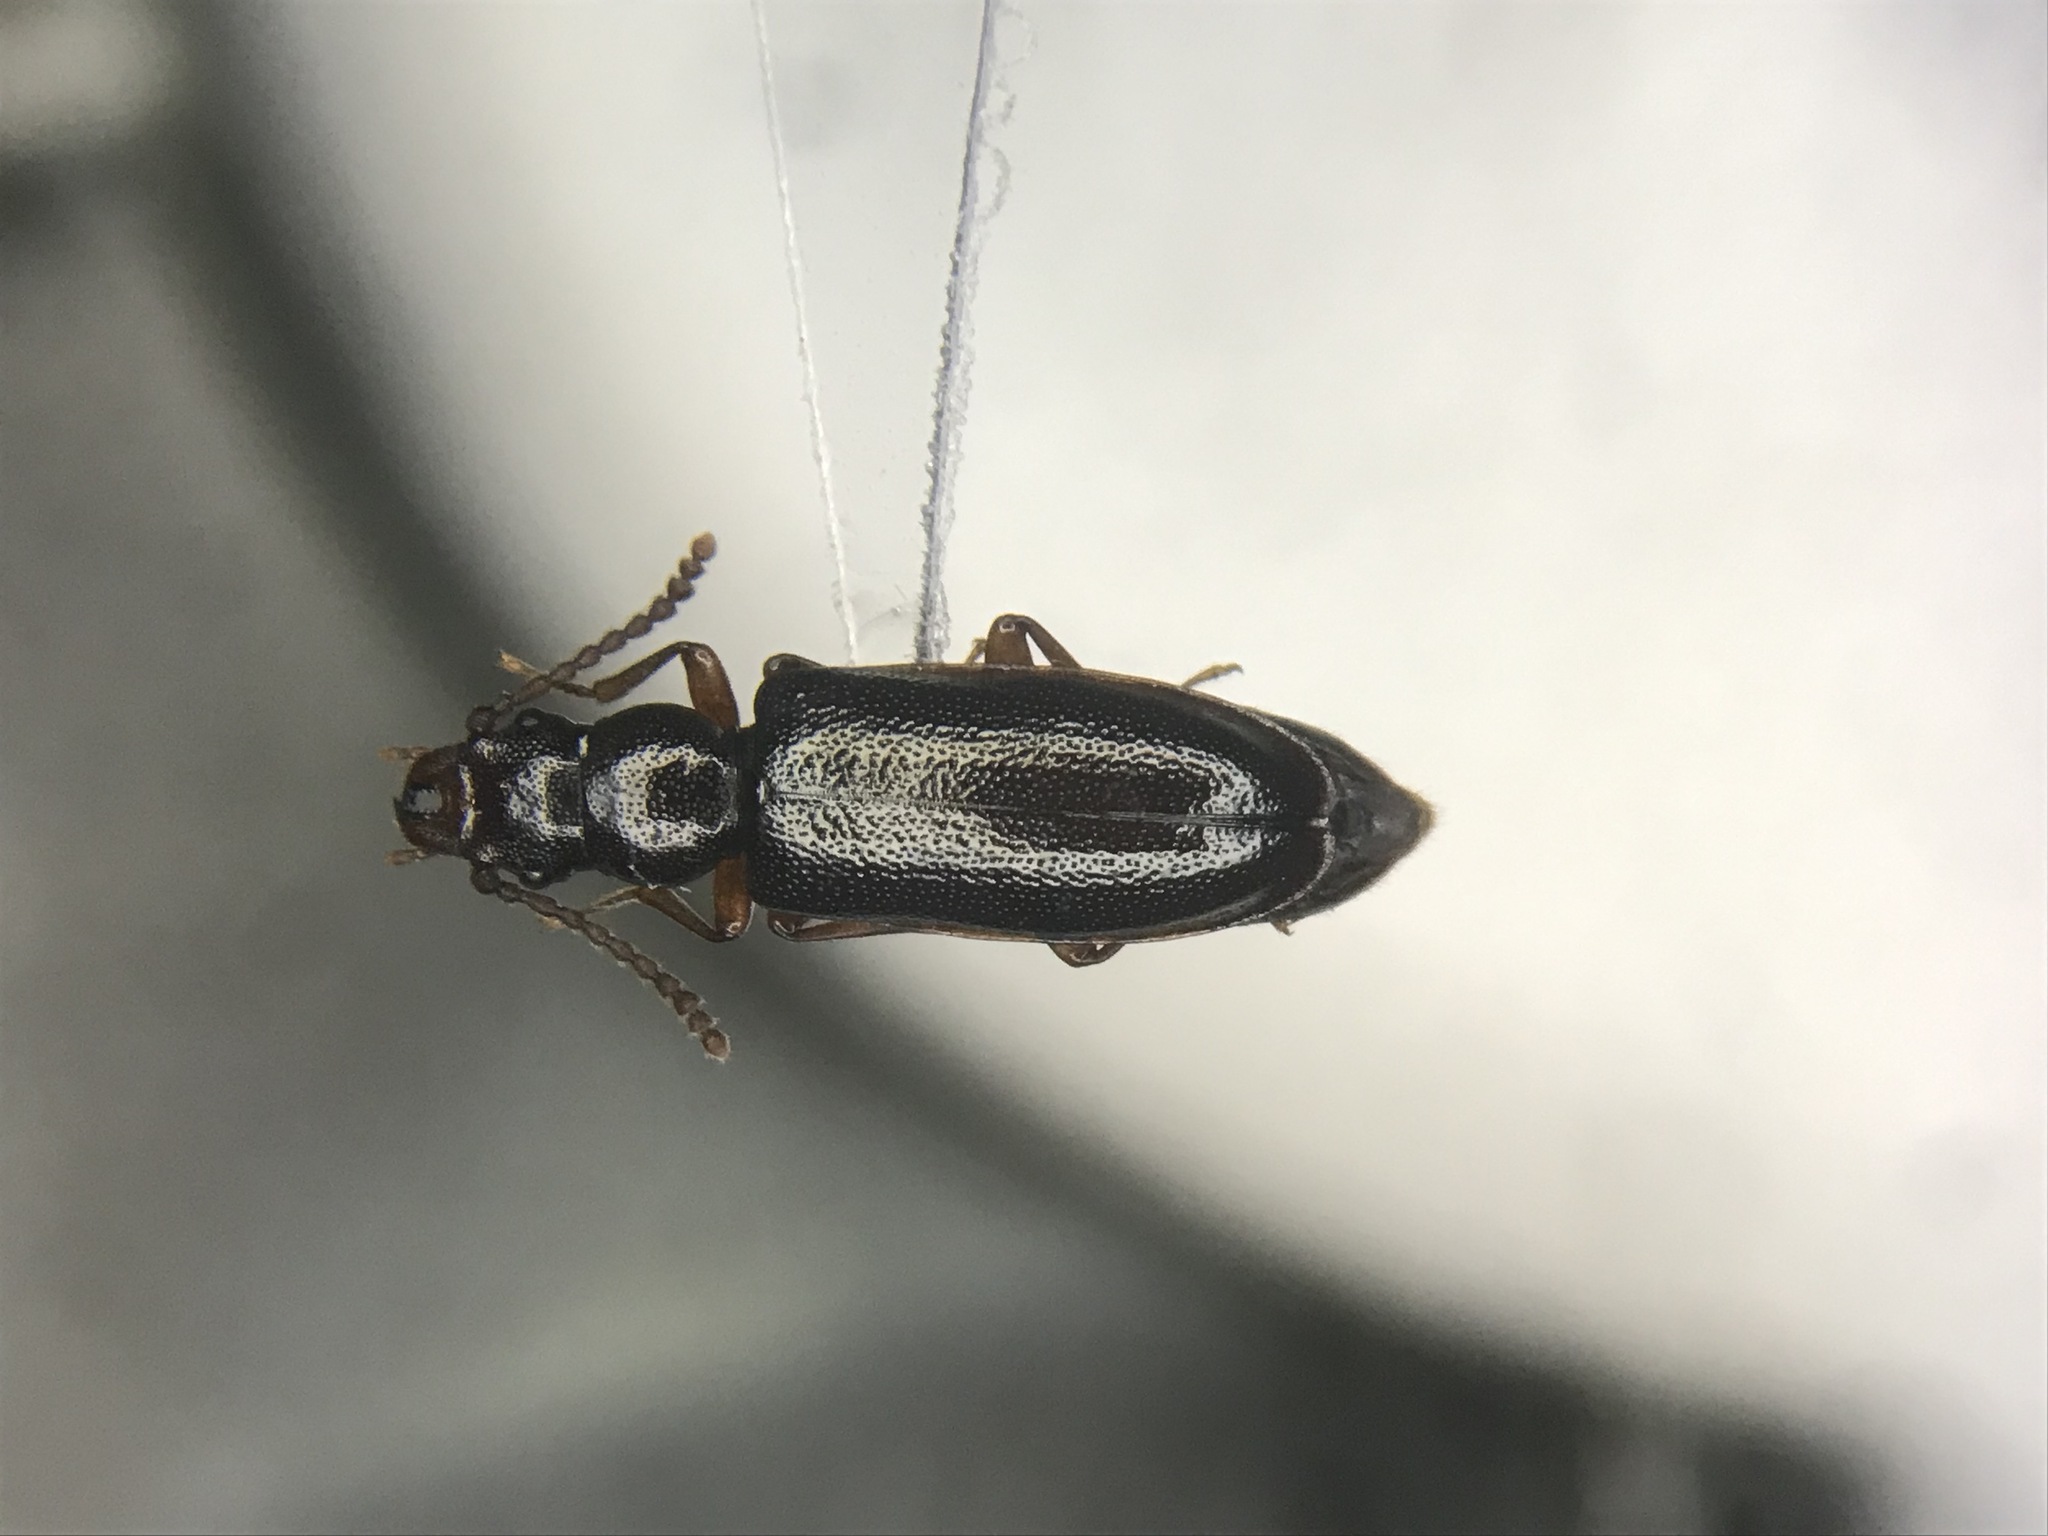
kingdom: Animalia
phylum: Arthropoda
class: Insecta
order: Coleoptera
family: Pythidae
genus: Priognathus
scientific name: Priognathus monilicornis
